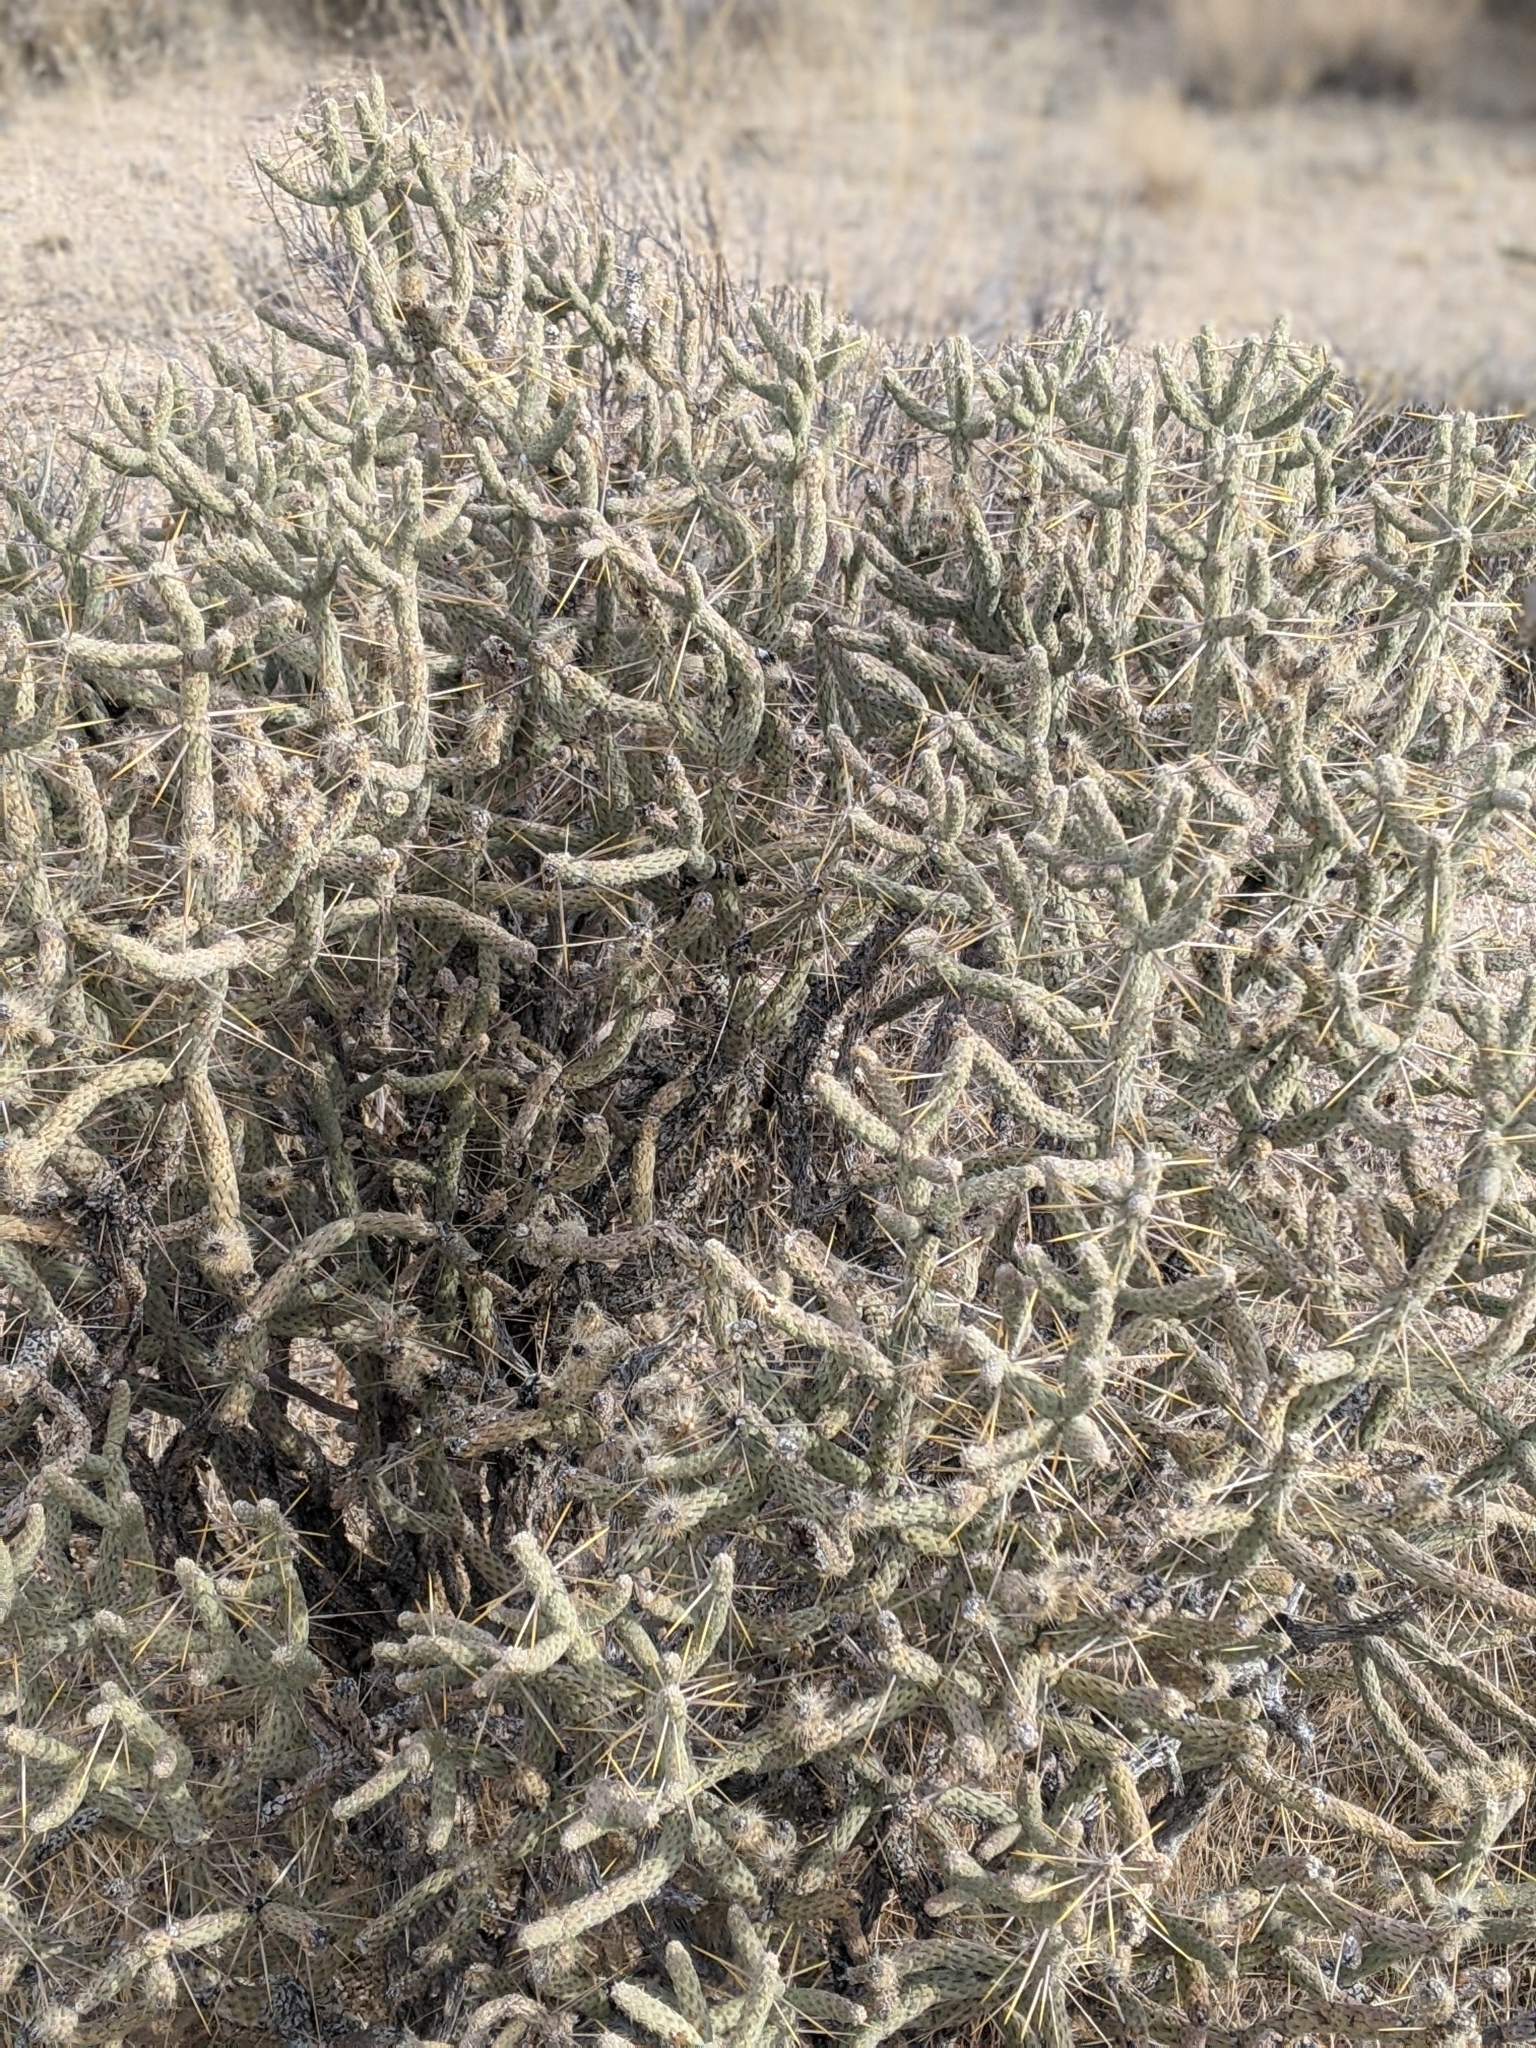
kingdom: Plantae
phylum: Tracheophyta
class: Magnoliopsida
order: Caryophyllales
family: Cactaceae
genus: Cylindropuntia
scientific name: Cylindropuntia ramosissima
